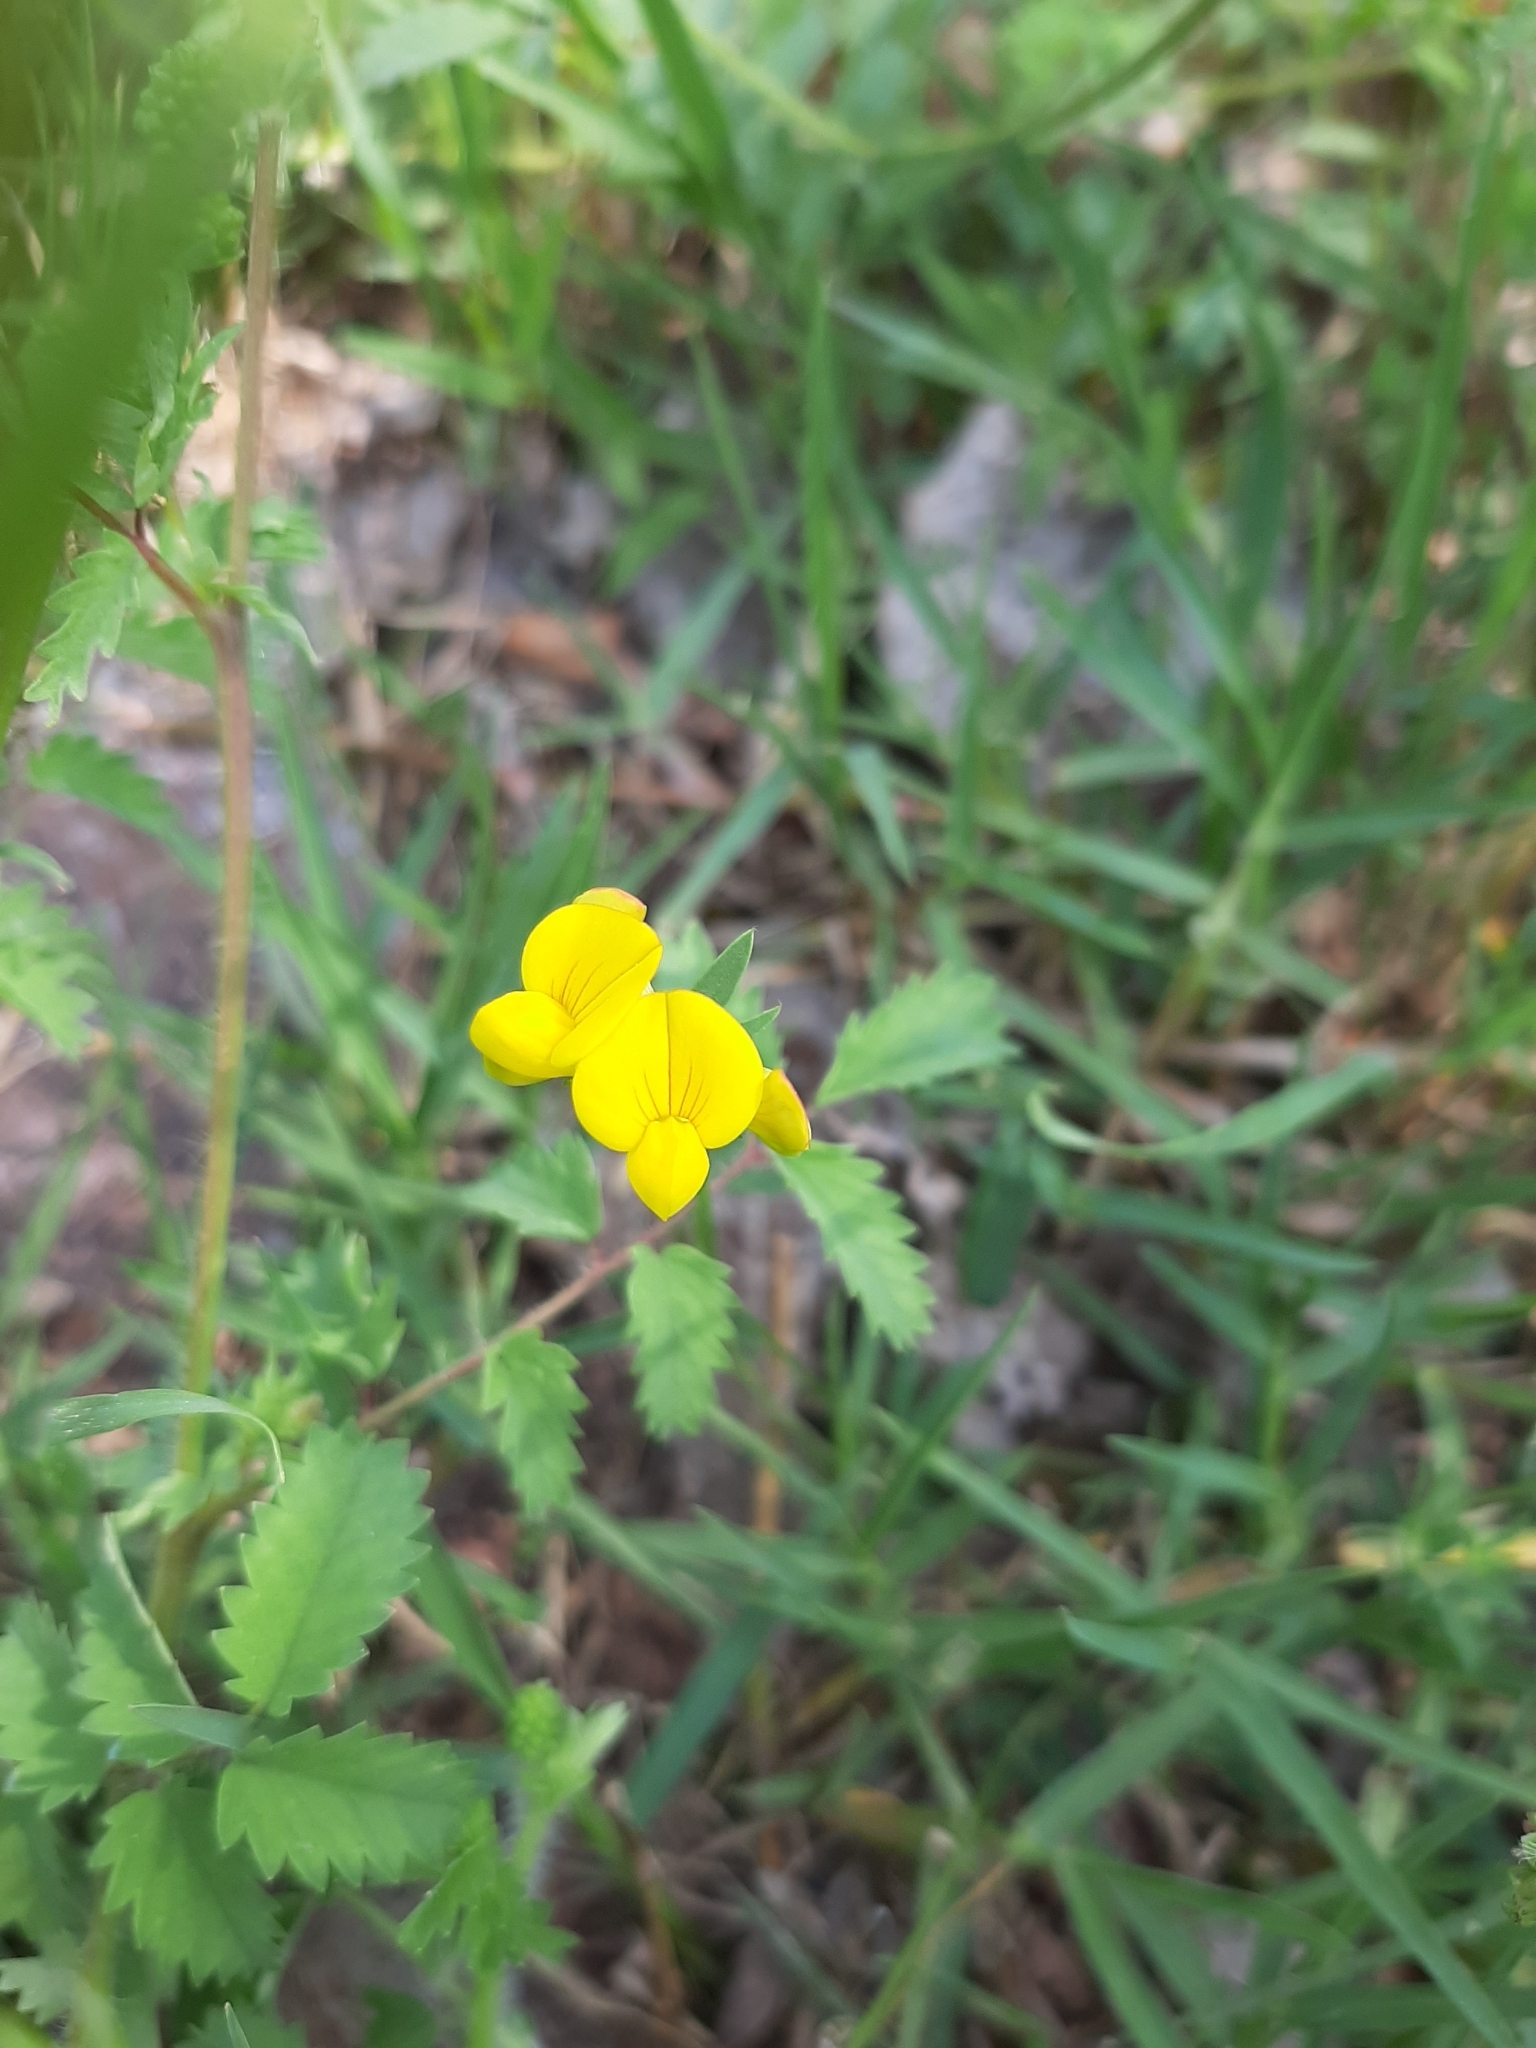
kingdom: Plantae
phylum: Tracheophyta
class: Magnoliopsida
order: Fabales
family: Fabaceae
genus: Lotus
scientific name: Lotus corniculatus
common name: Common bird's-foot-trefoil
